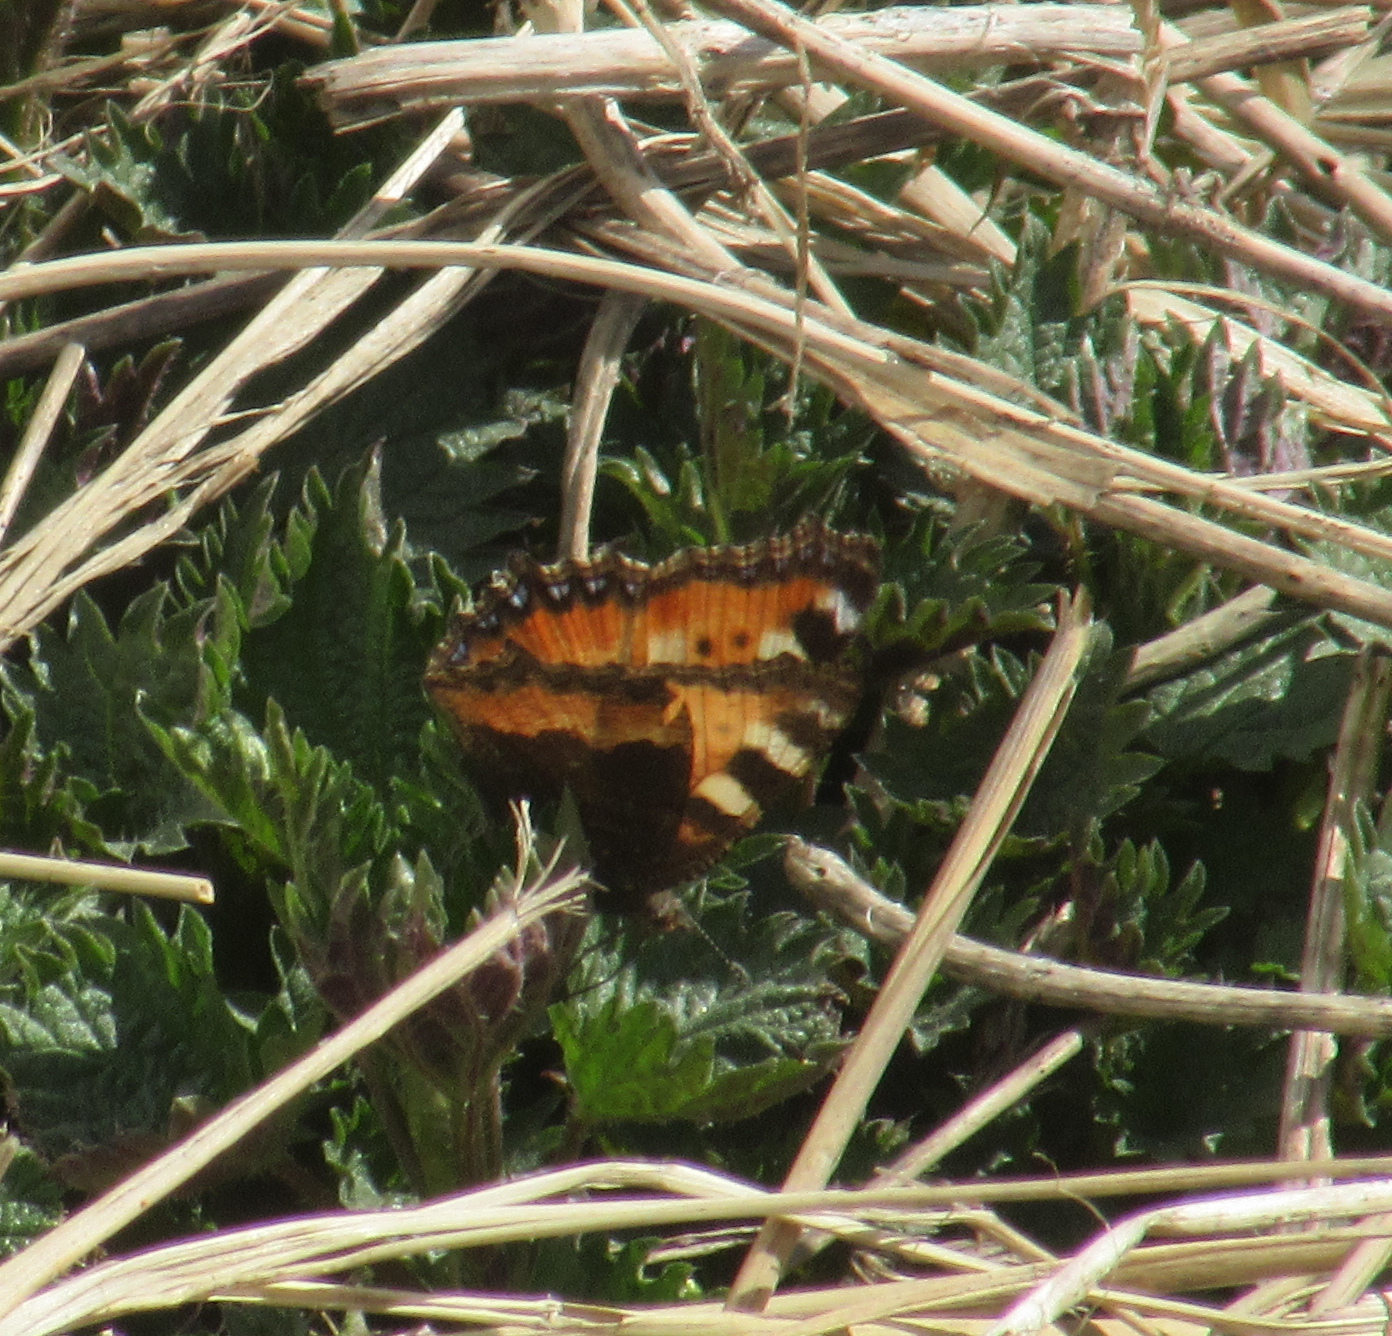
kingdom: Animalia
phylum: Arthropoda
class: Insecta
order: Lepidoptera
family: Nymphalidae
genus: Aglais
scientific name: Aglais urticae
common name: Small tortoiseshell
